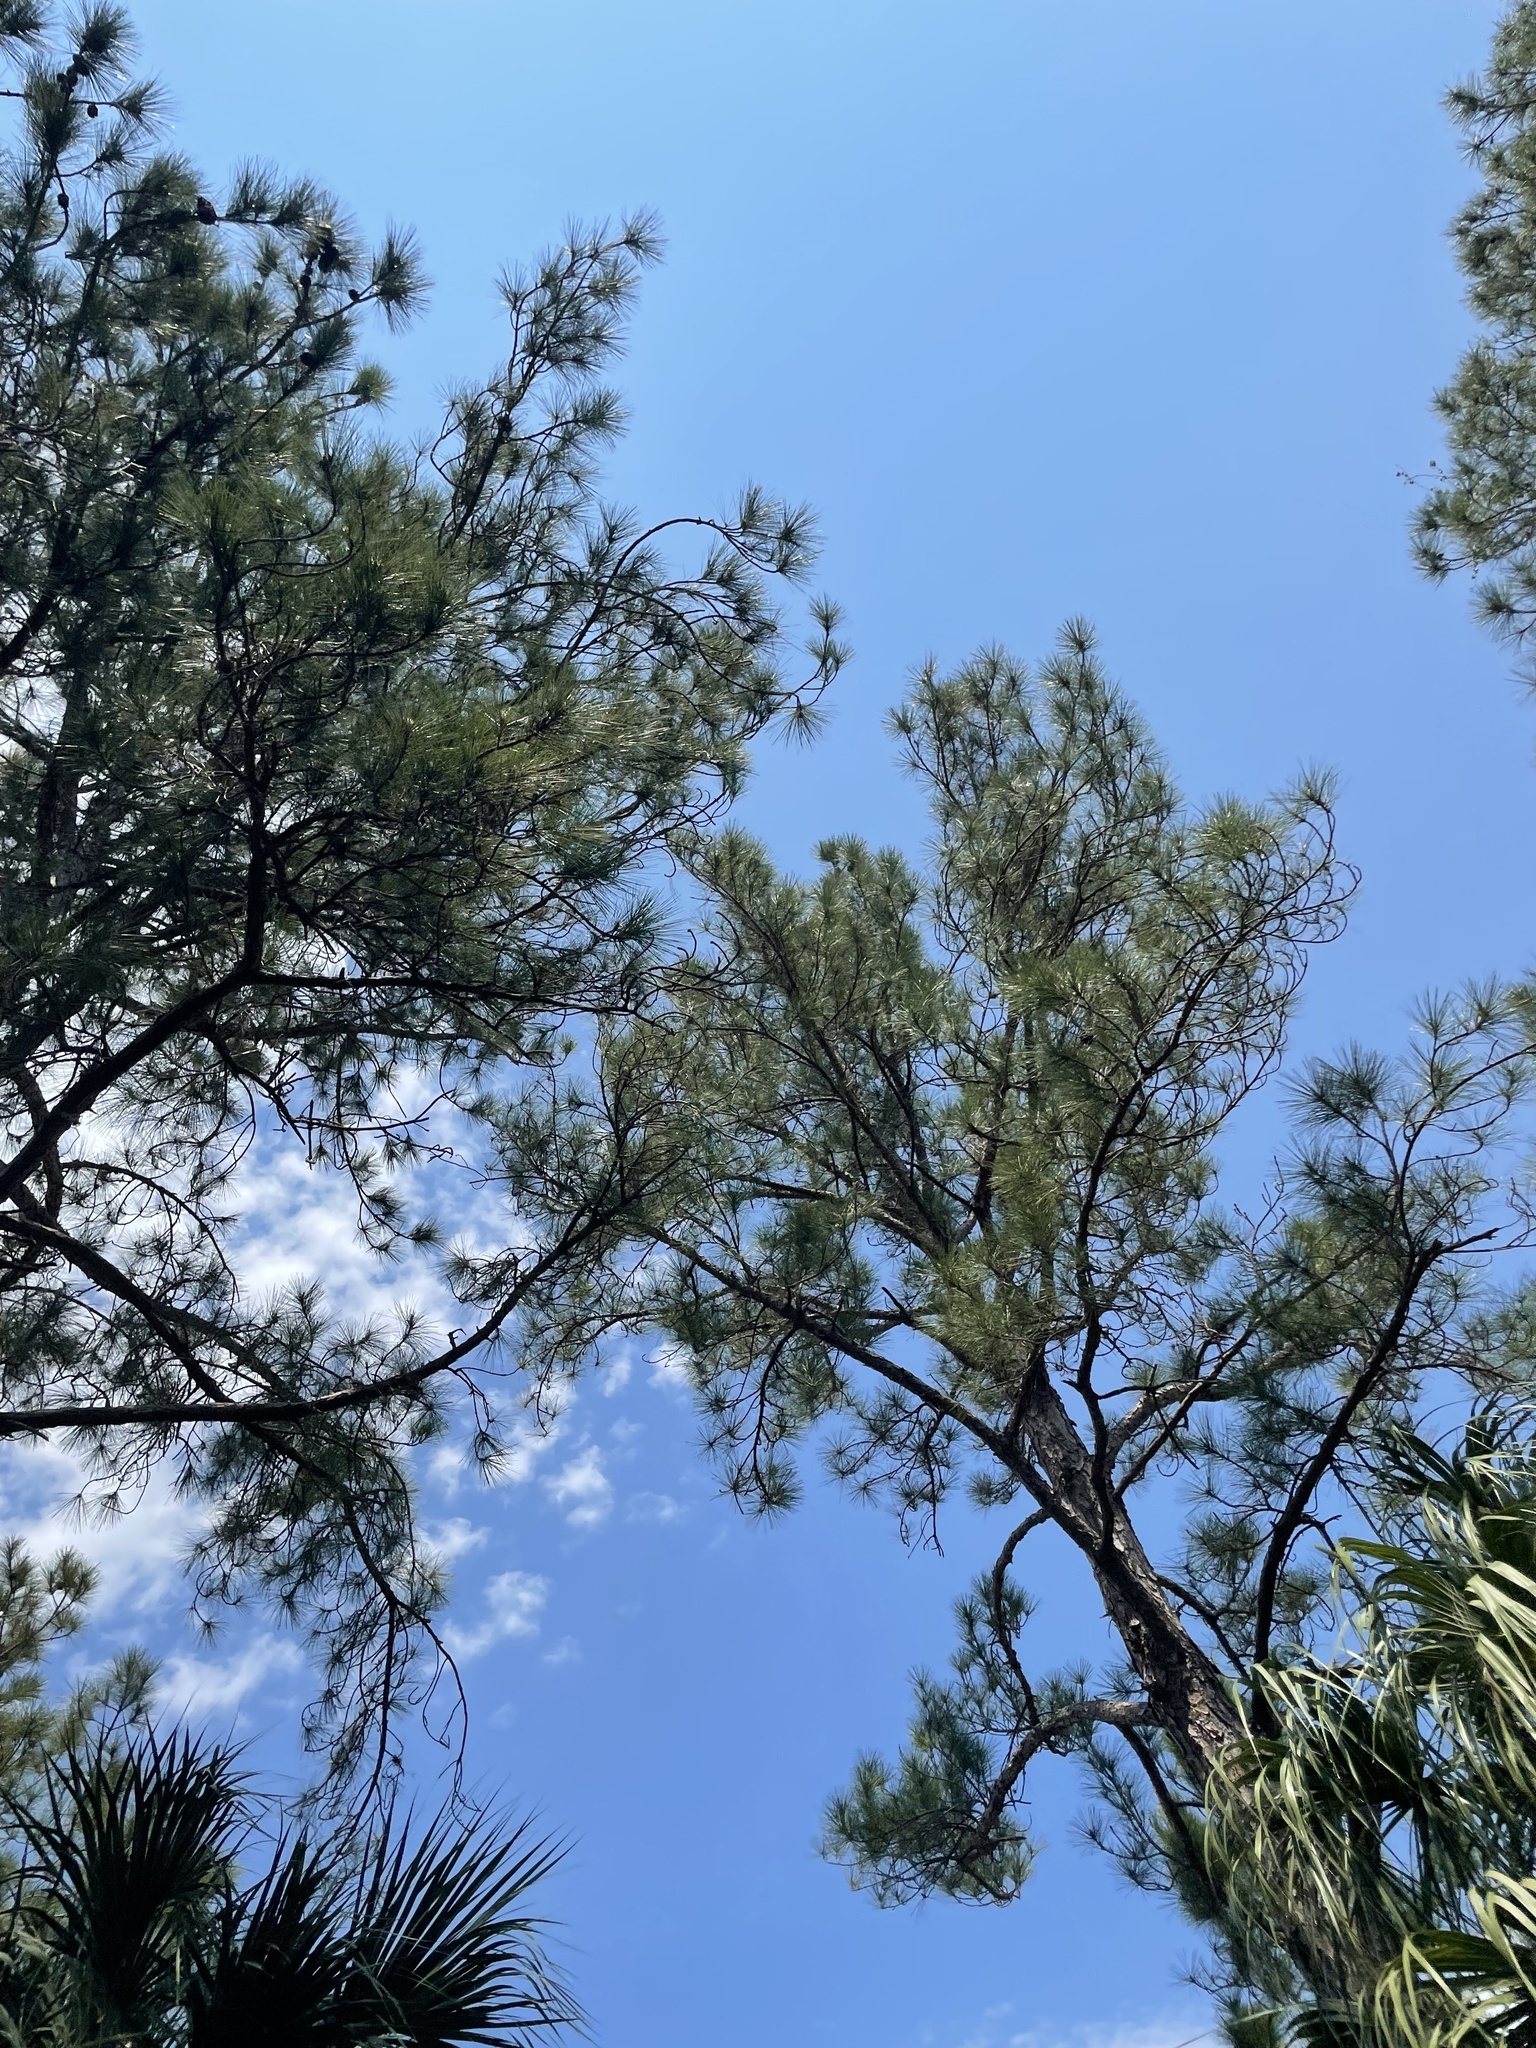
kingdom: Plantae
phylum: Tracheophyta
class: Pinopsida
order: Pinales
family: Pinaceae
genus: Pinus
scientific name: Pinus elliottii
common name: Slash pine
